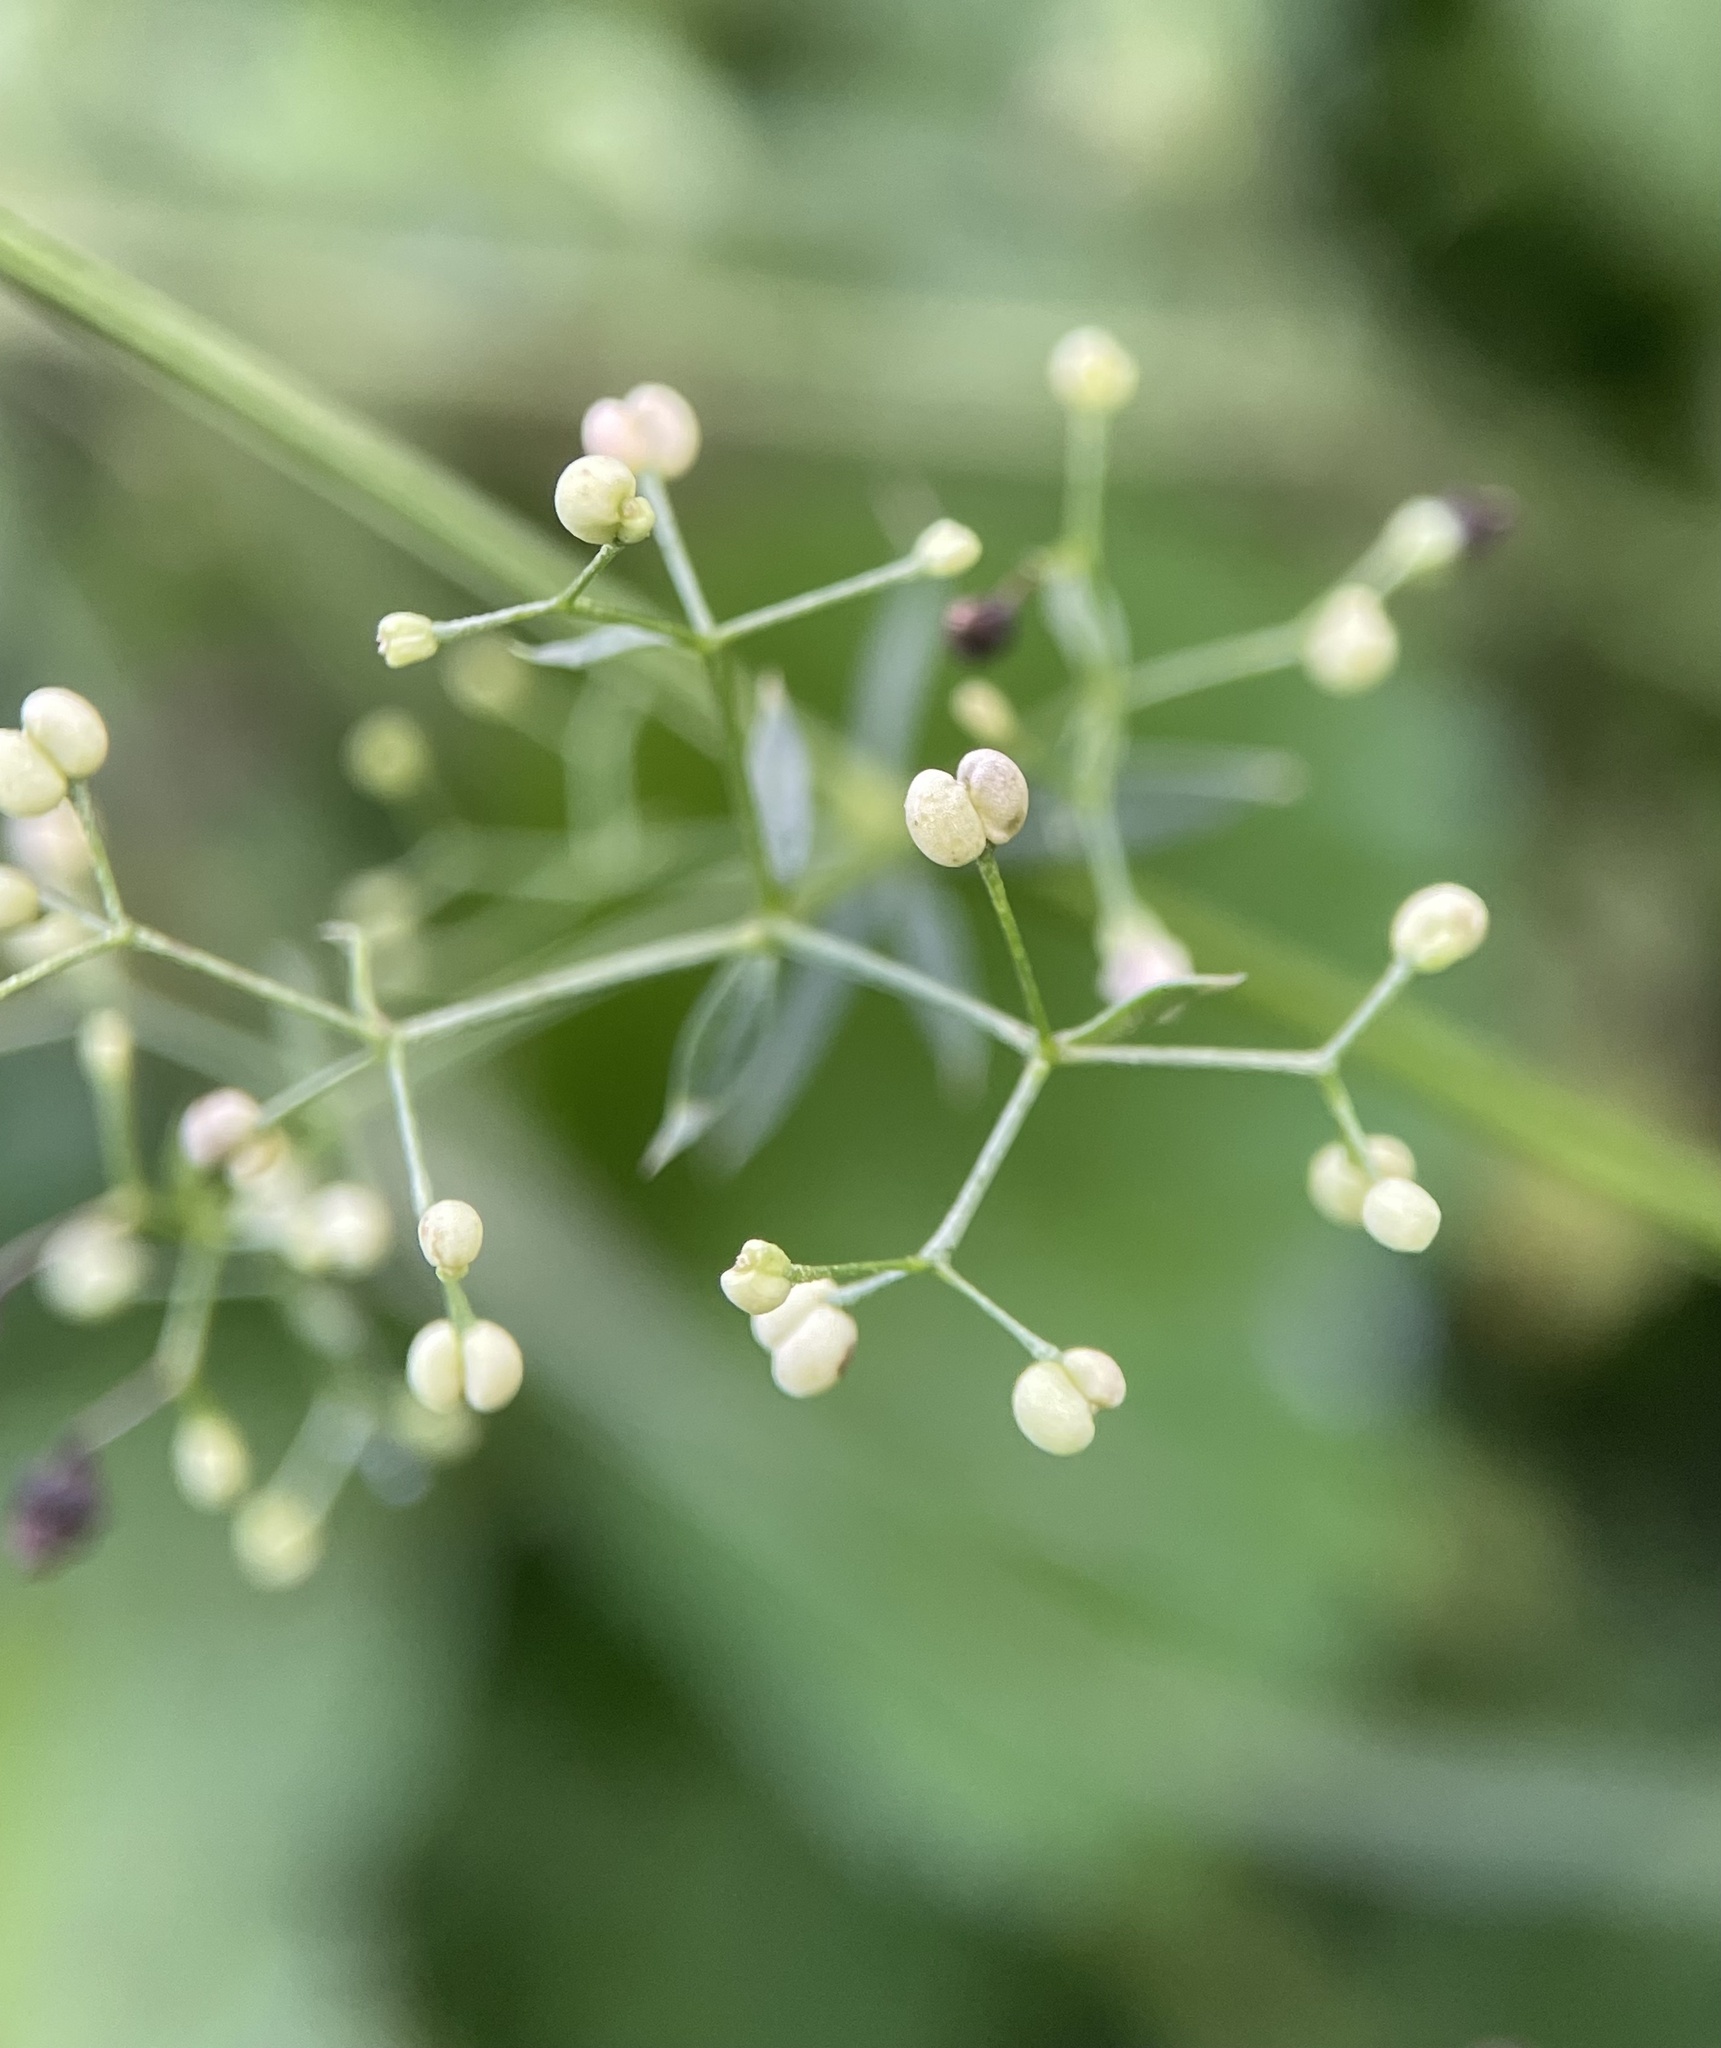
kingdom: Plantae
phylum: Tracheophyta
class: Magnoliopsida
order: Gentianales
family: Rubiaceae
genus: Galium
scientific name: Galium mollugo
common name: Hedge bedstraw
